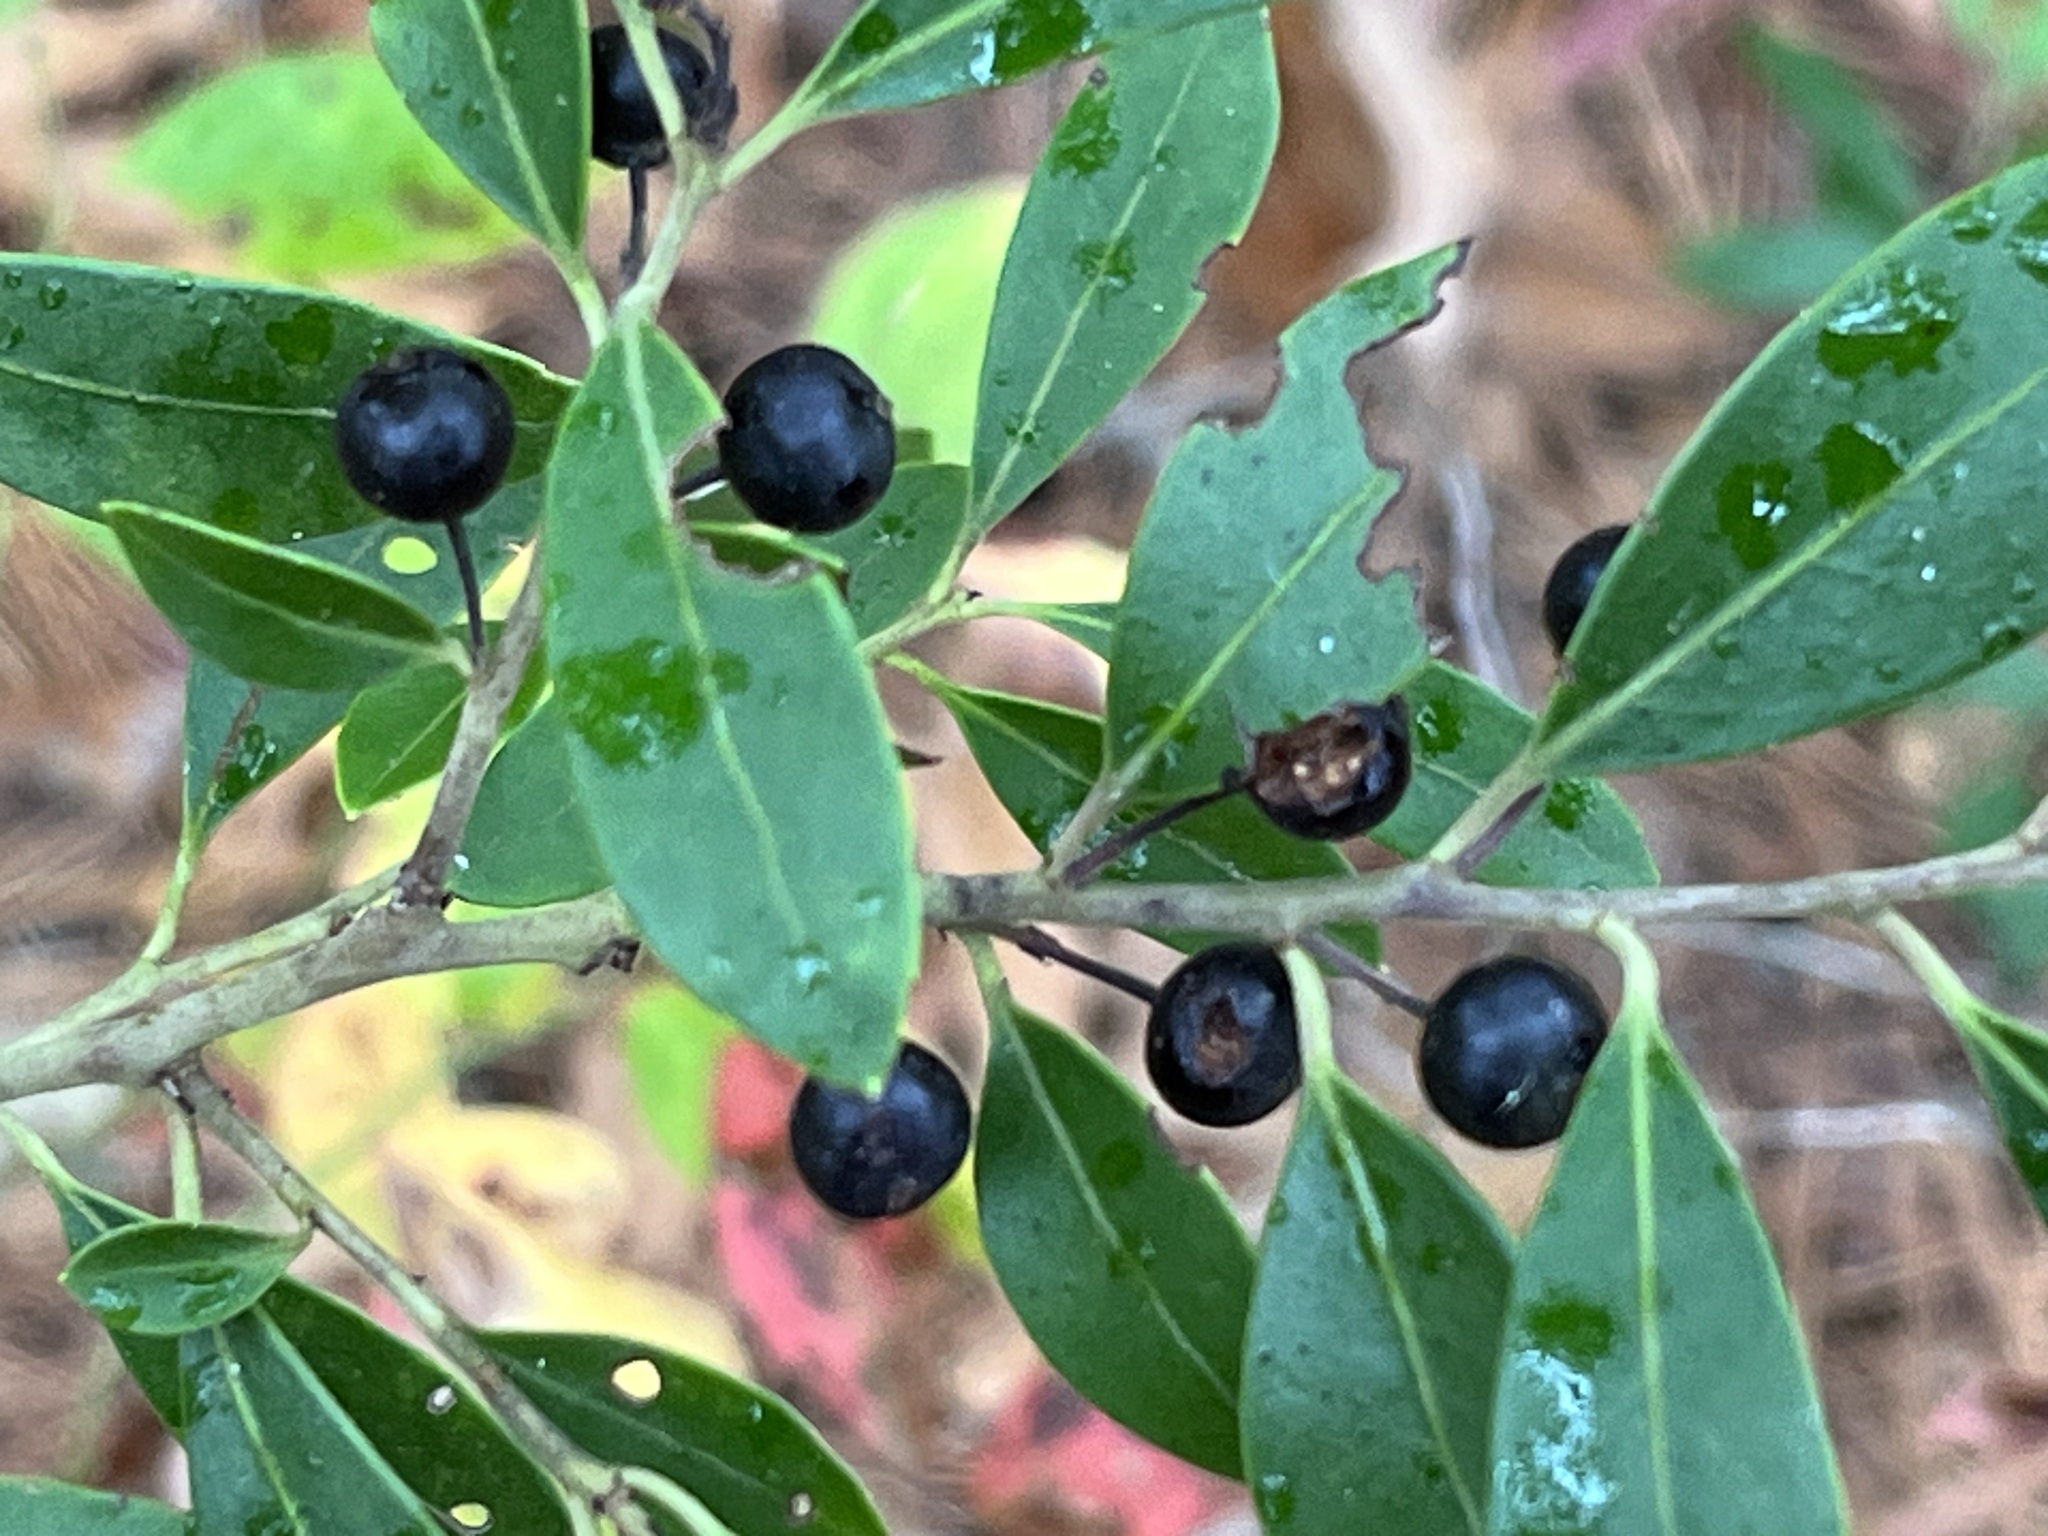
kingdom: Plantae
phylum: Tracheophyta
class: Magnoliopsida
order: Aquifoliales
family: Aquifoliaceae
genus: Ilex
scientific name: Ilex glabra
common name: Bitter gallberry
